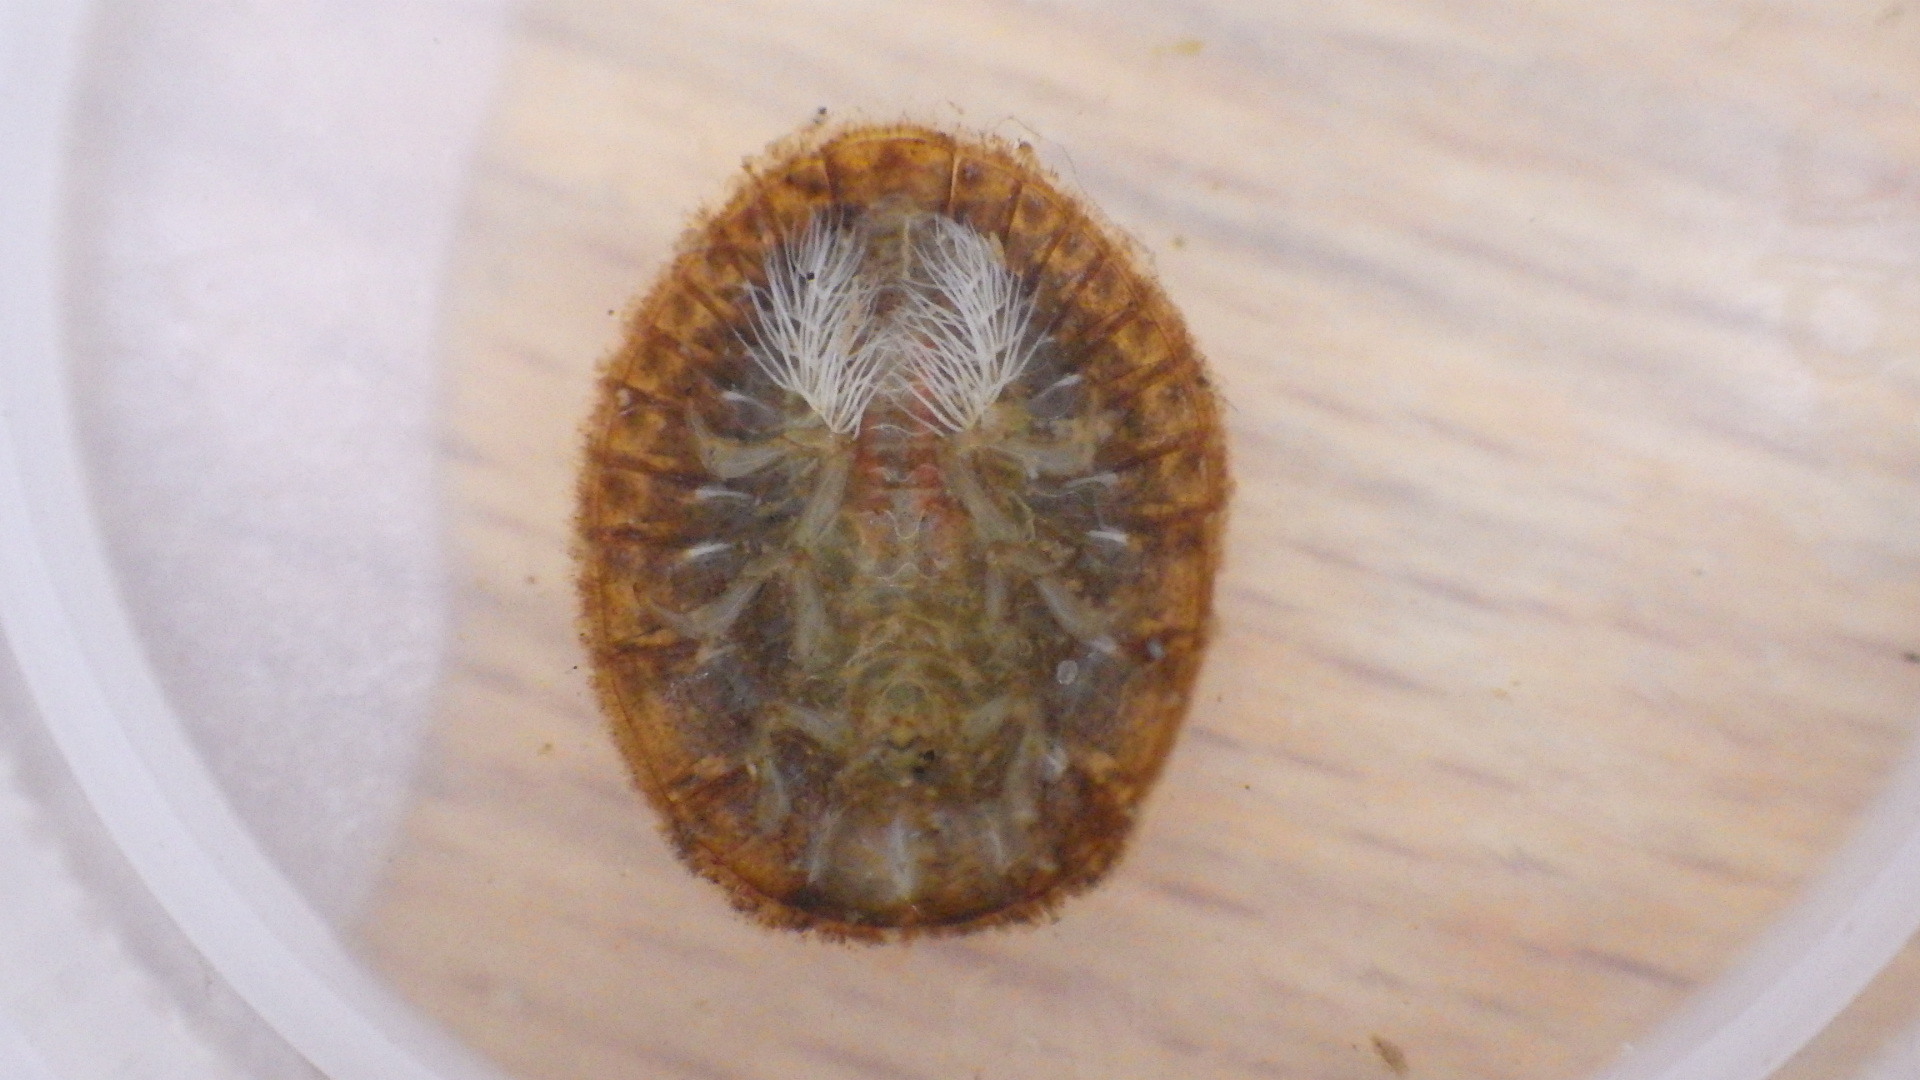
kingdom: Animalia
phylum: Arthropoda
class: Insecta
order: Coleoptera
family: Psephenidae
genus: Psephenus
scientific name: Psephenus herricki
